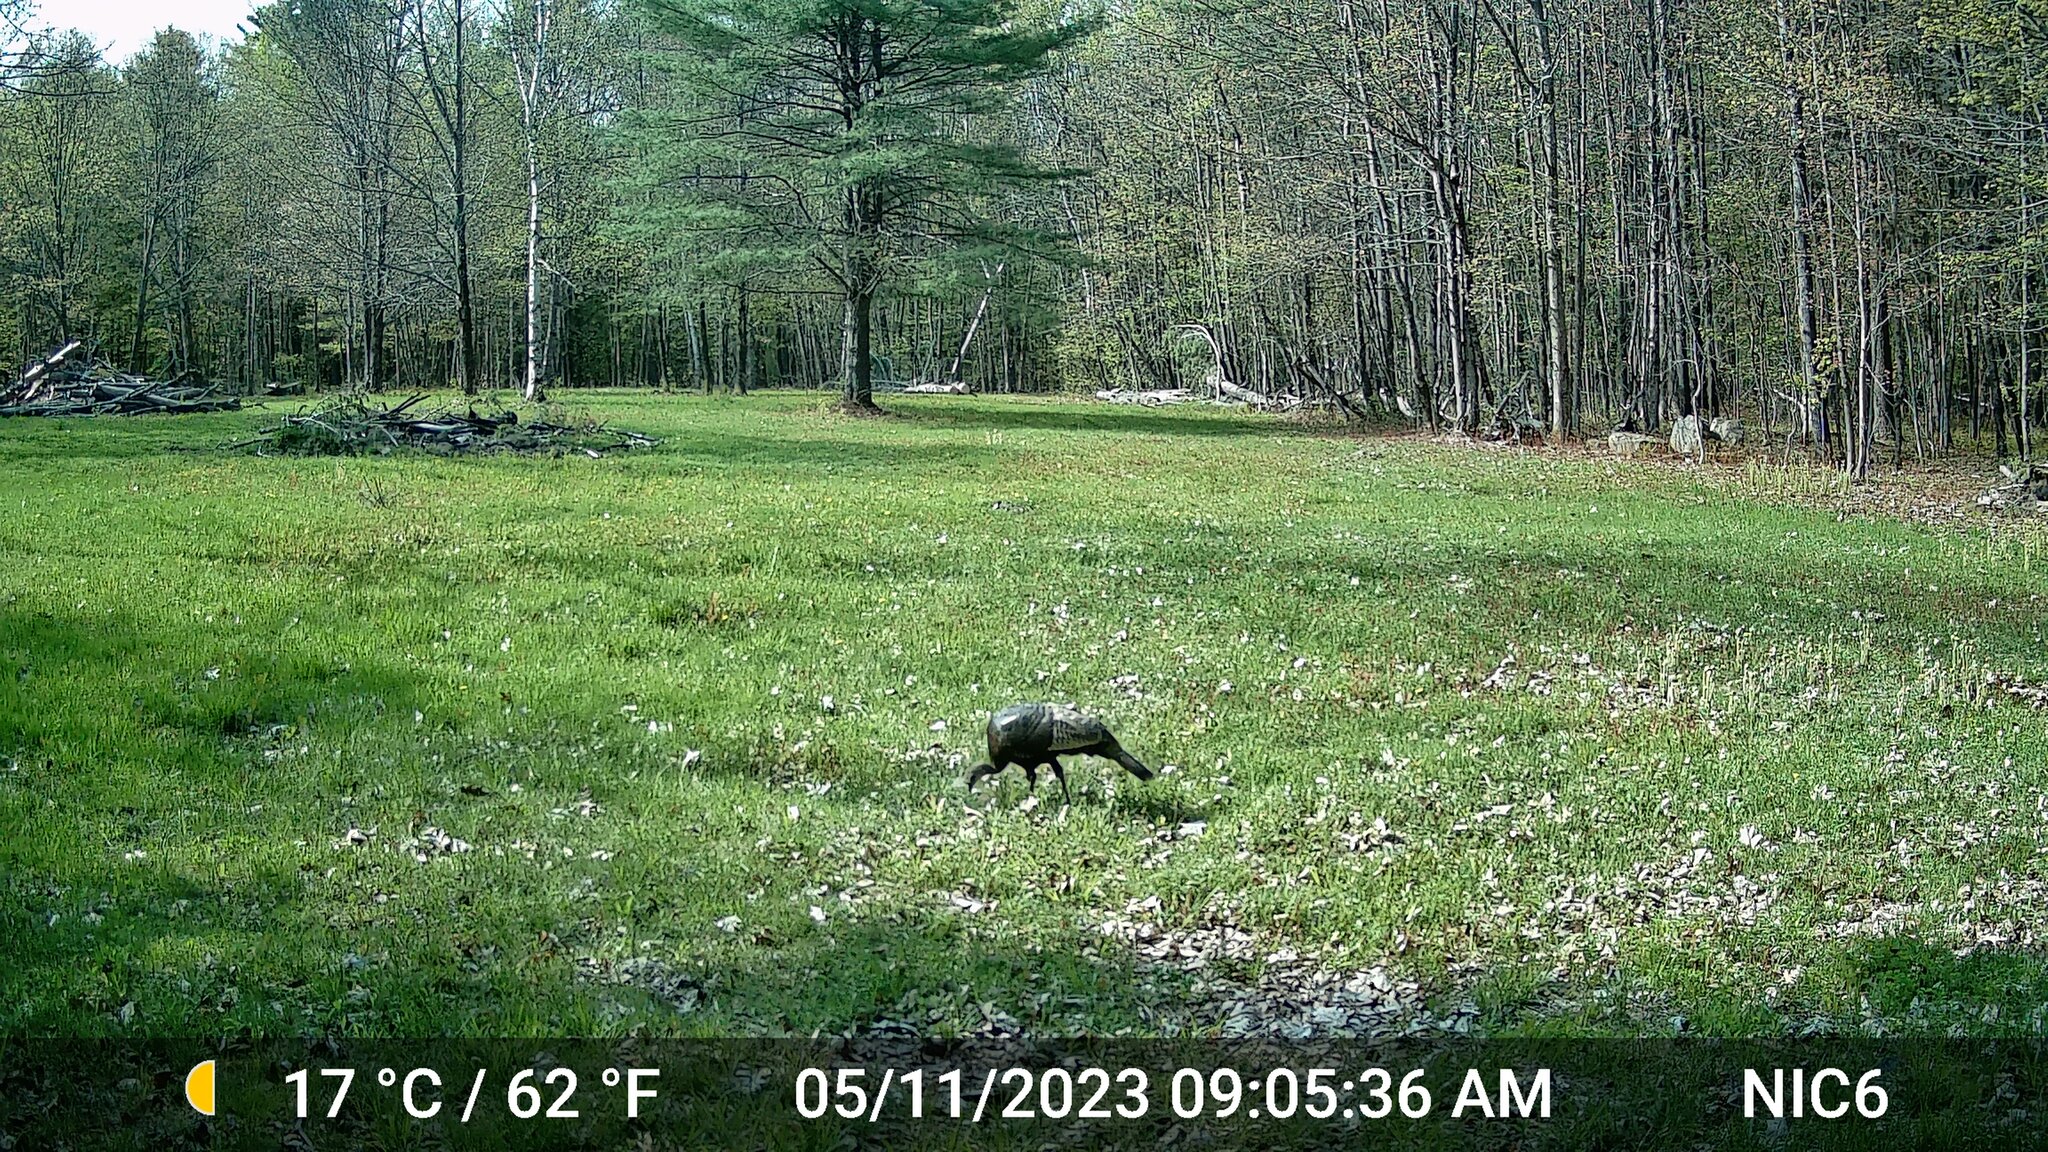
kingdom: Animalia
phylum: Chordata
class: Aves
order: Galliformes
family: Phasianidae
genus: Meleagris
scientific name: Meleagris gallopavo
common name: Wild turkey
